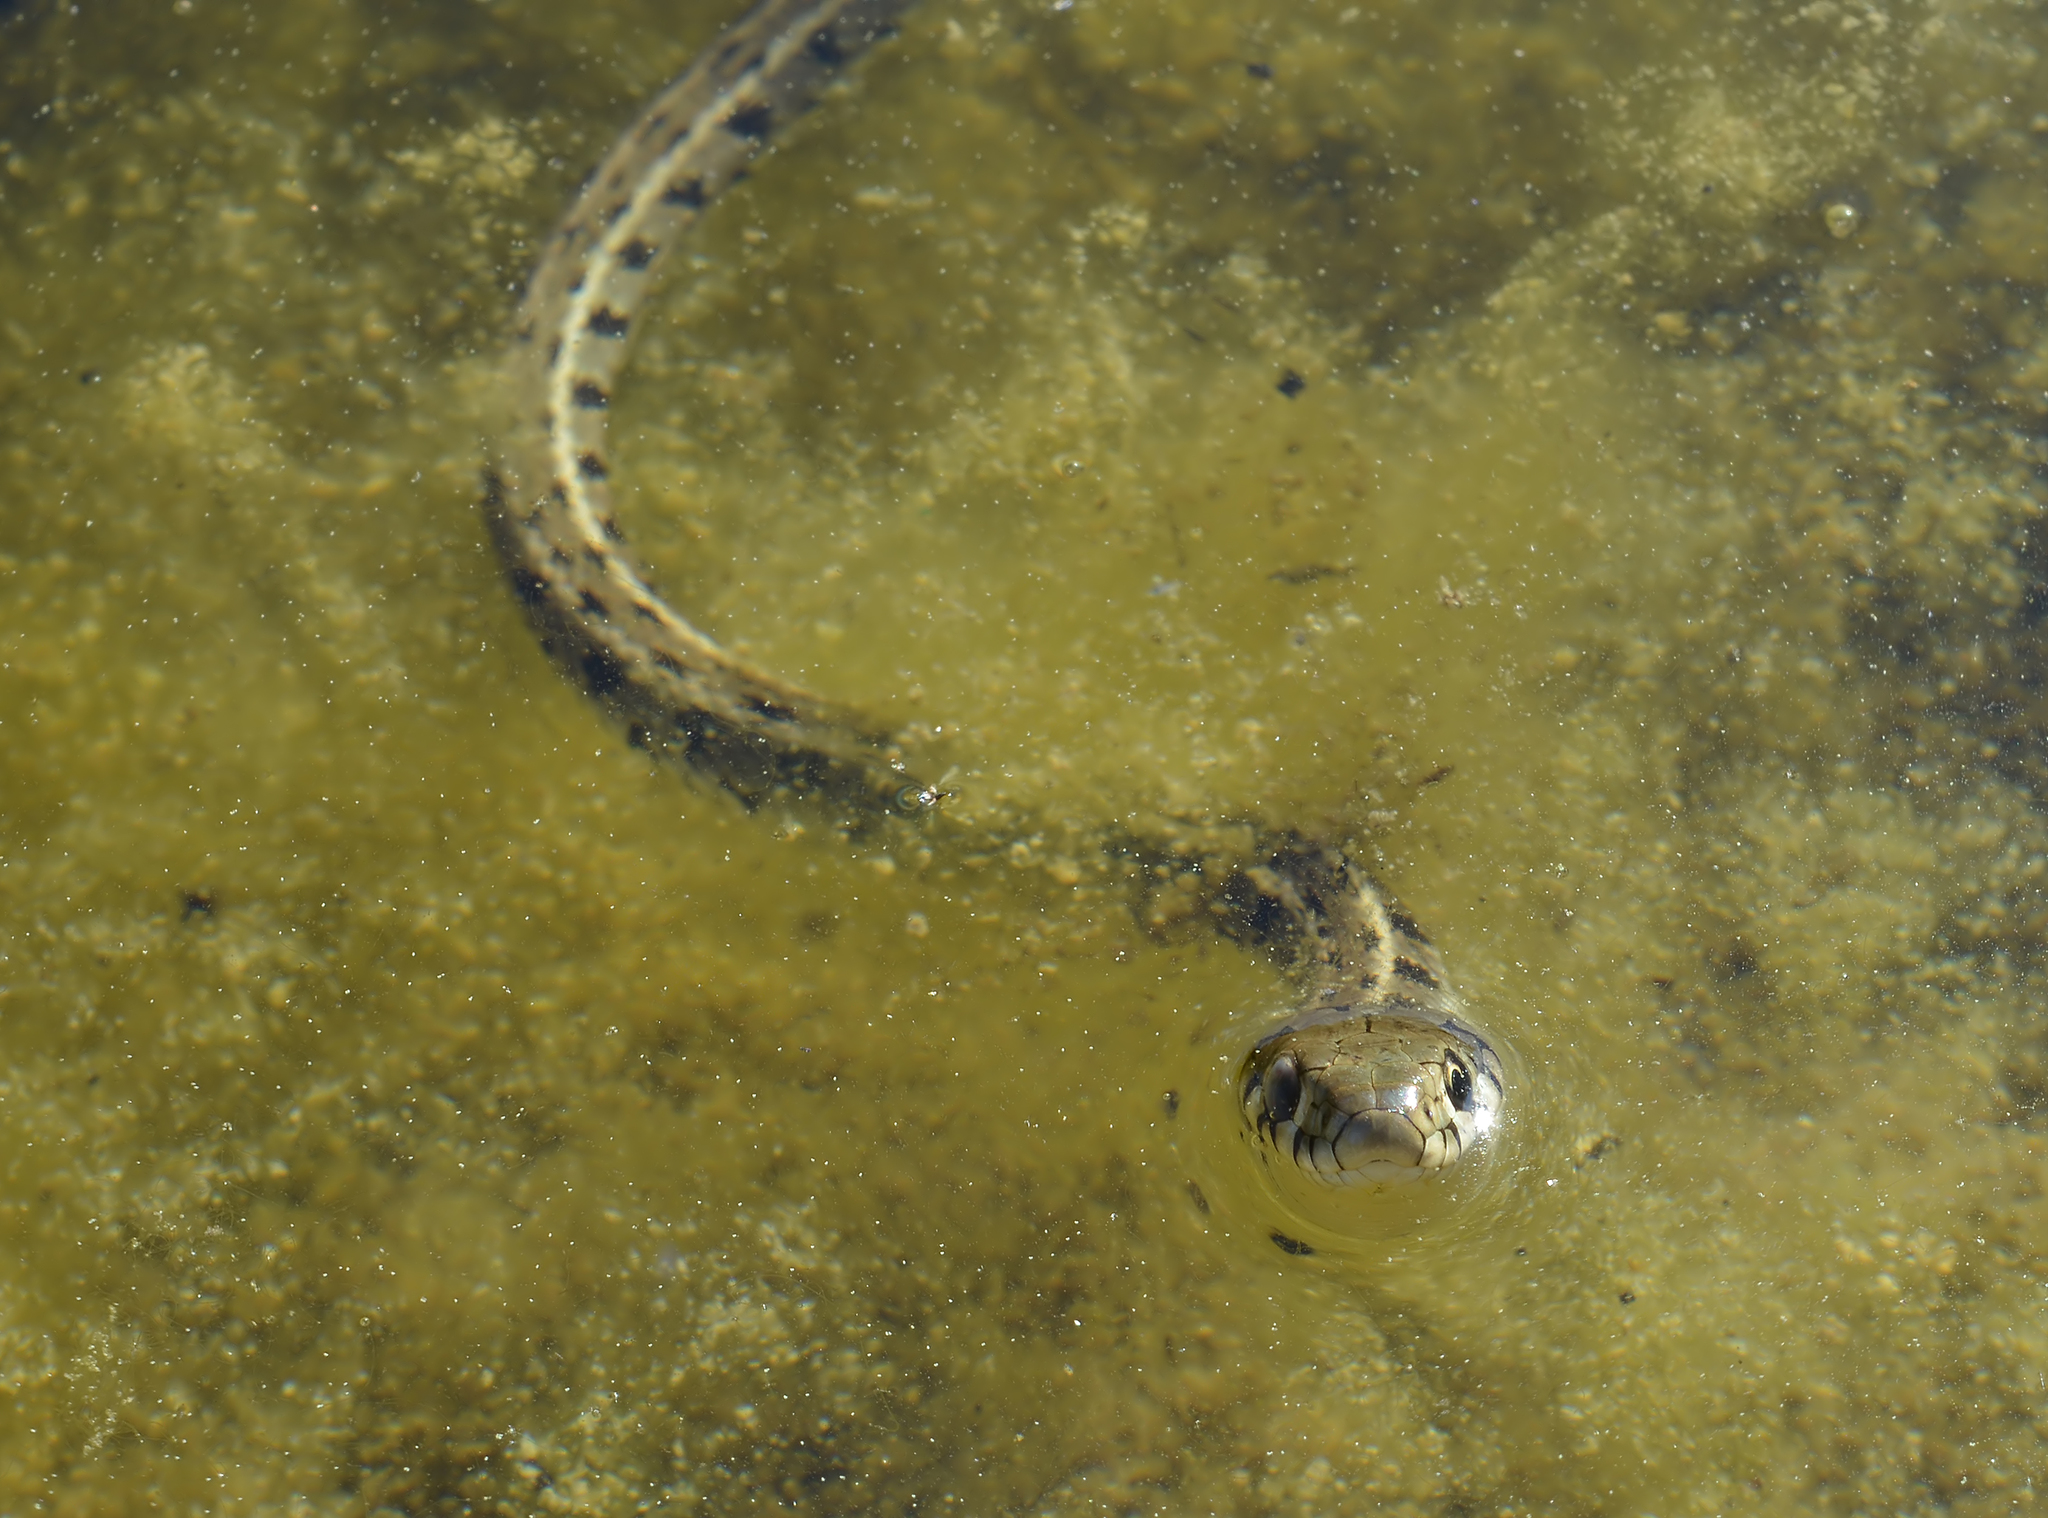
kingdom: Animalia
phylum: Chordata
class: Squamata
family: Colubridae
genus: Natrix
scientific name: Natrix natrix
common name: Grass snake
